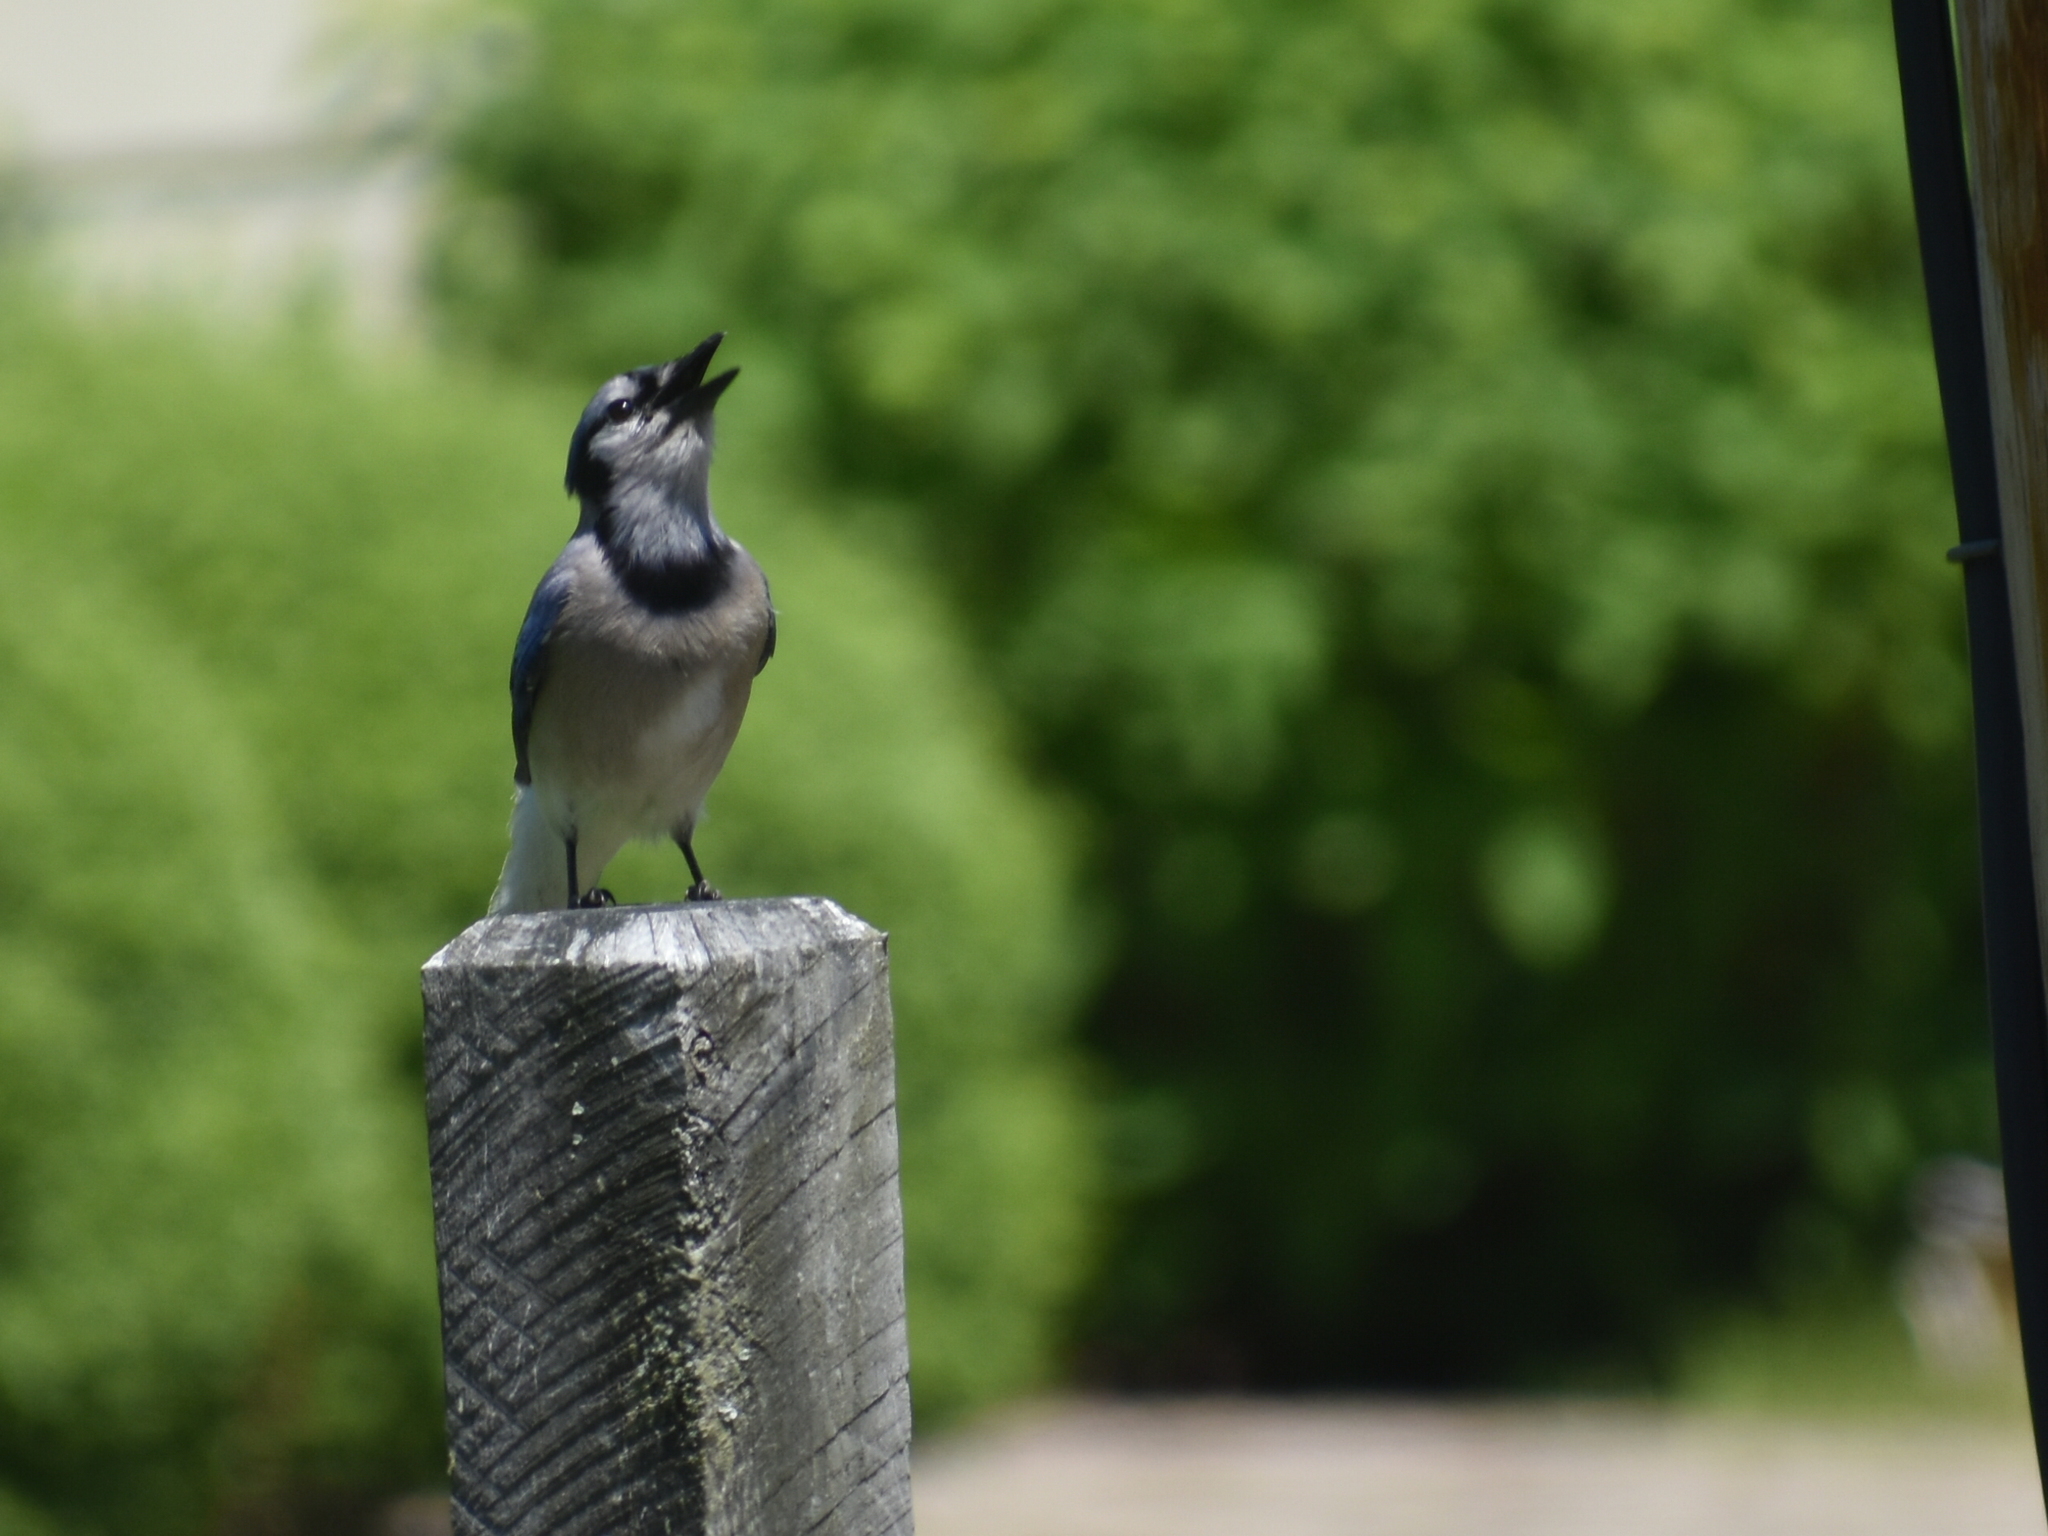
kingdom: Animalia
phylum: Chordata
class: Aves
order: Passeriformes
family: Corvidae
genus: Cyanocitta
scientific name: Cyanocitta cristata
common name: Blue jay
